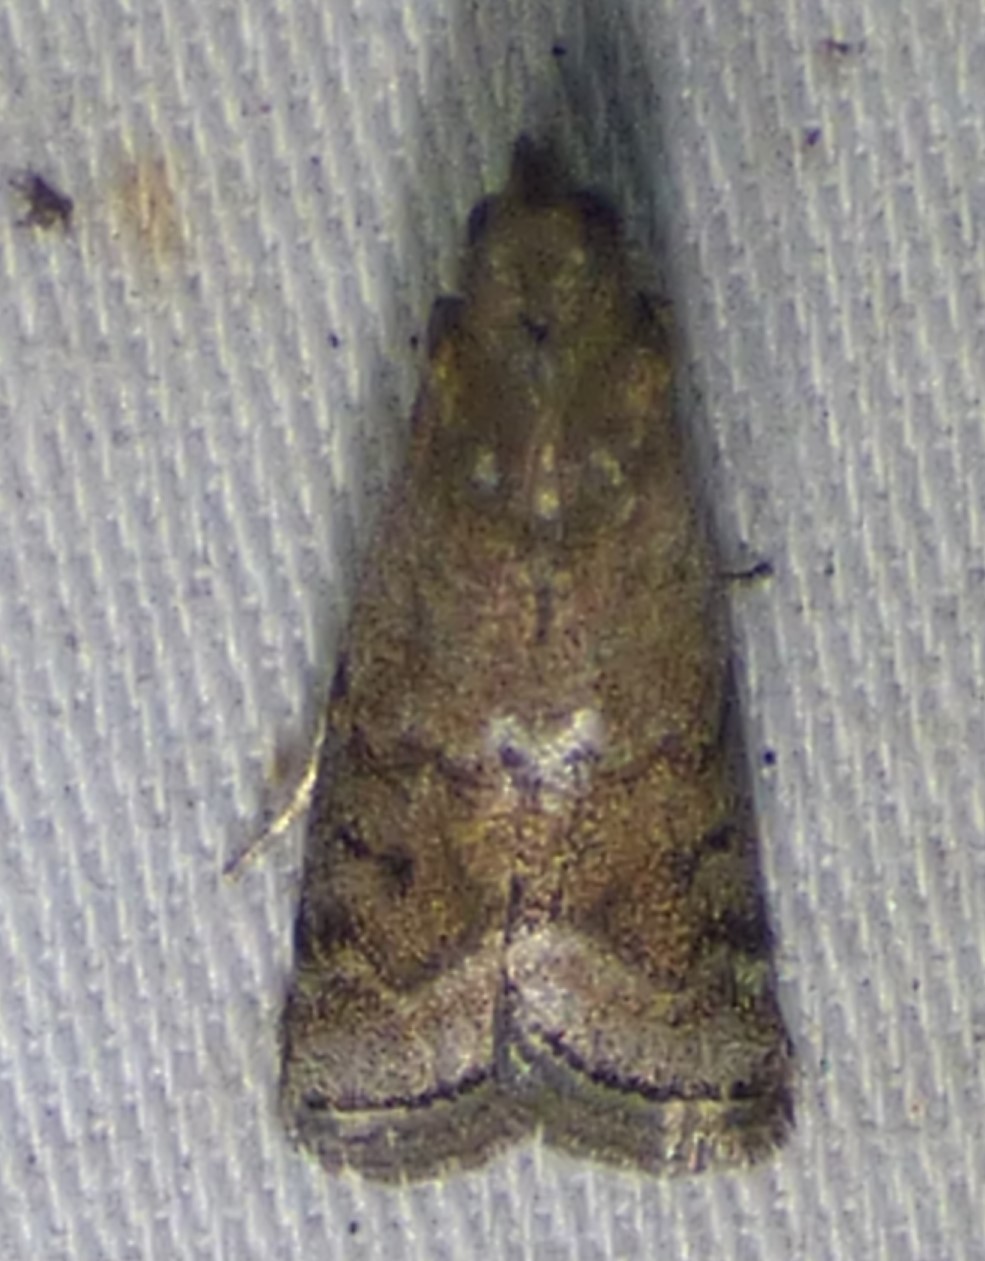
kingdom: Animalia
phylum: Arthropoda
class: Insecta
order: Lepidoptera
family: Pyralidae
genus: Eulogia
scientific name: Eulogia ochrifrontella
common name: Broad-banded eulogia moth
